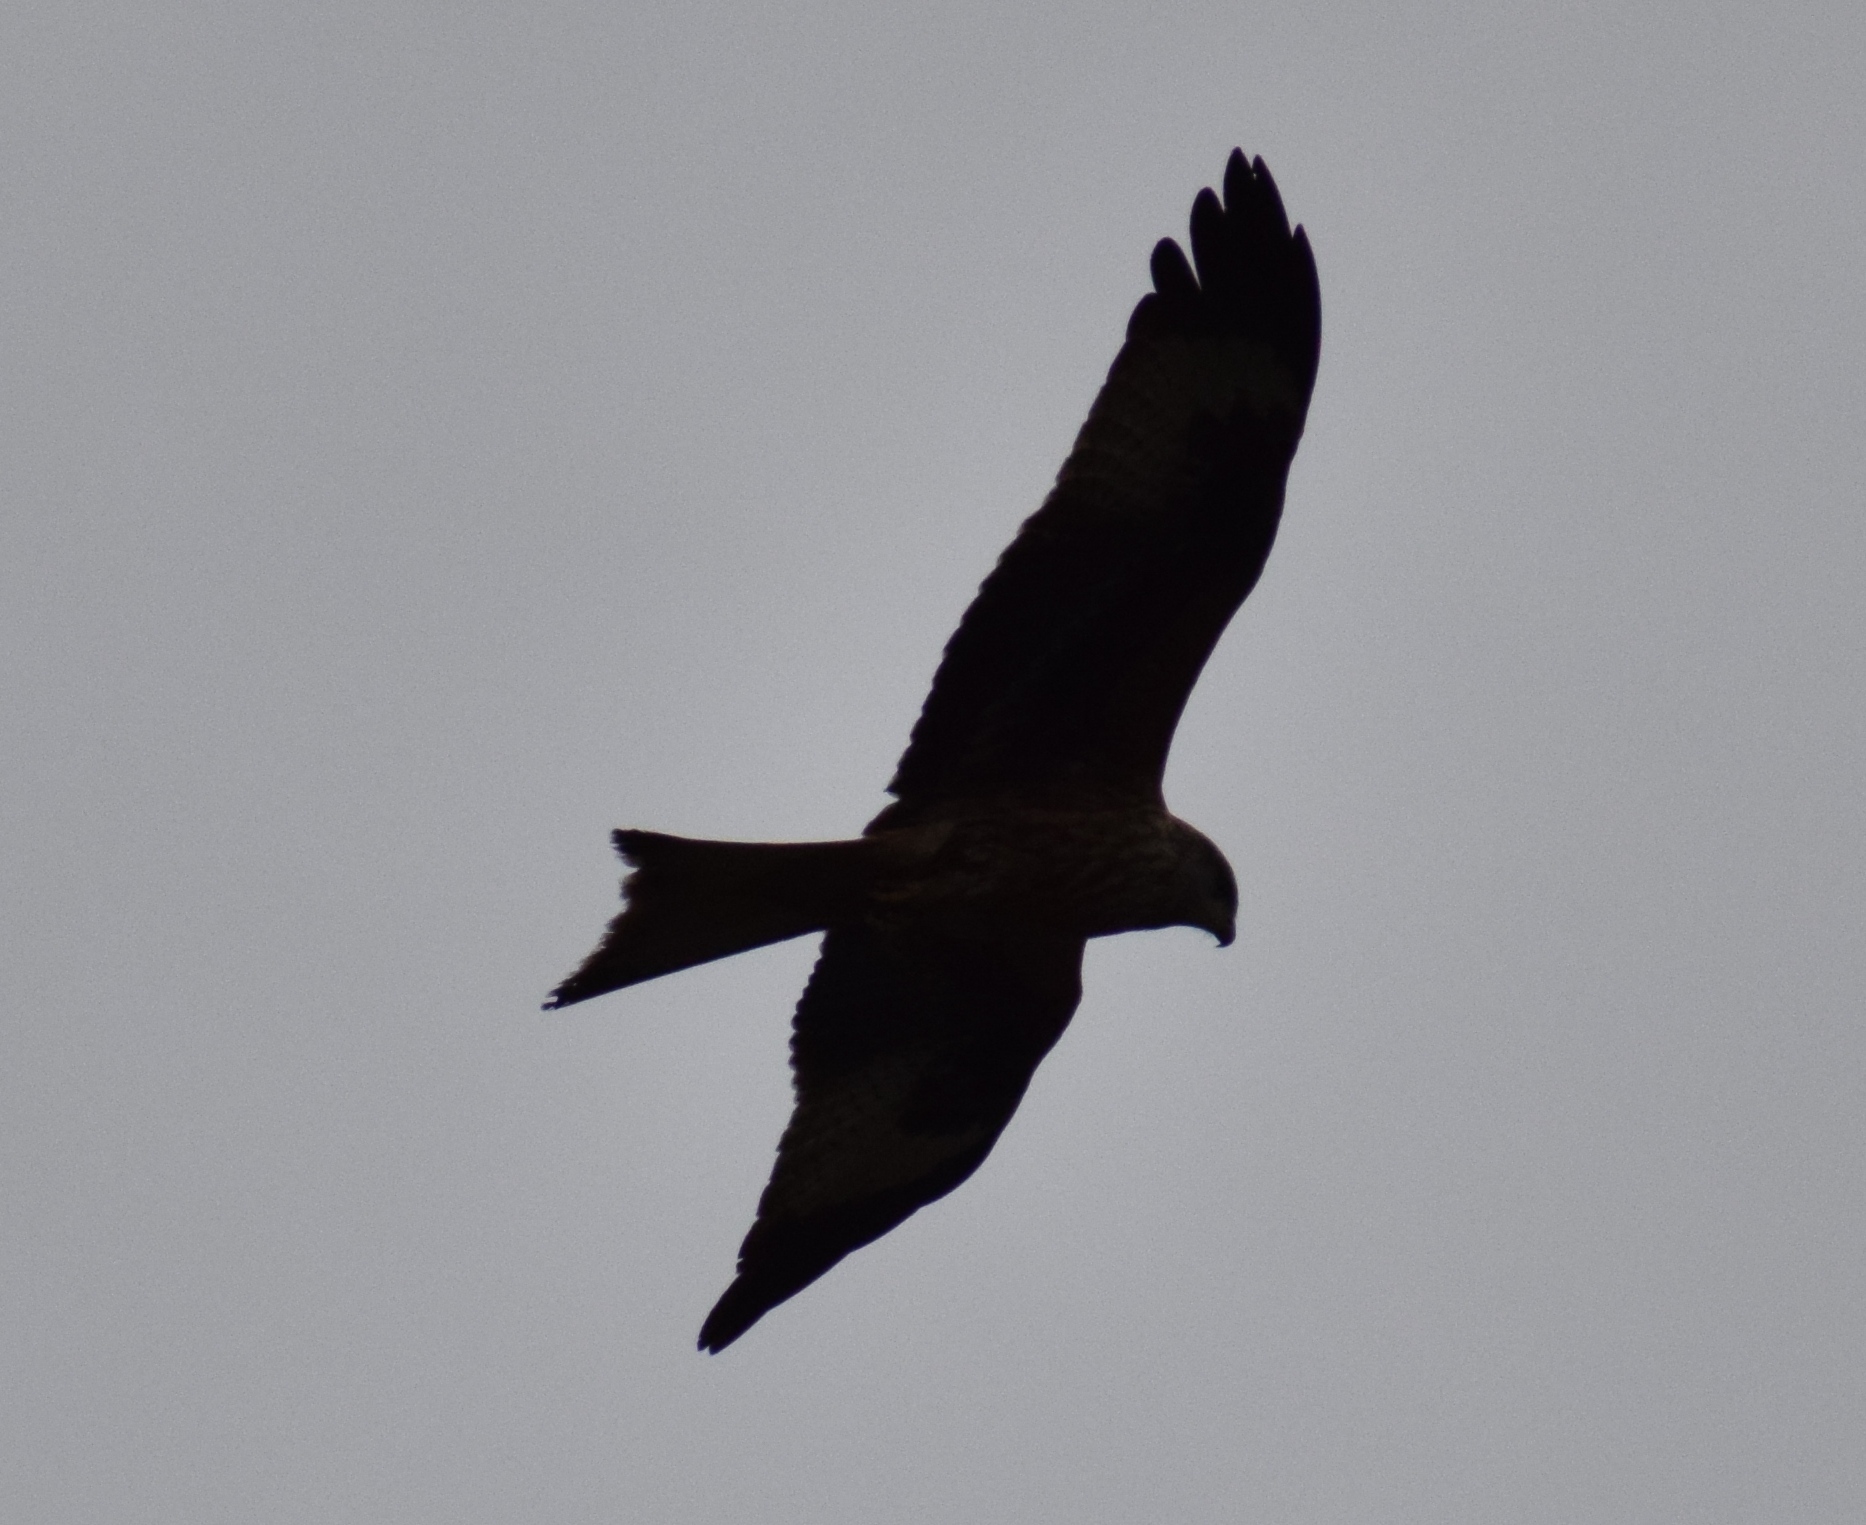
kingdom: Animalia
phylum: Chordata
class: Aves
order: Accipitriformes
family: Accipitridae
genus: Milvus
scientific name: Milvus milvus
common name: Red kite
